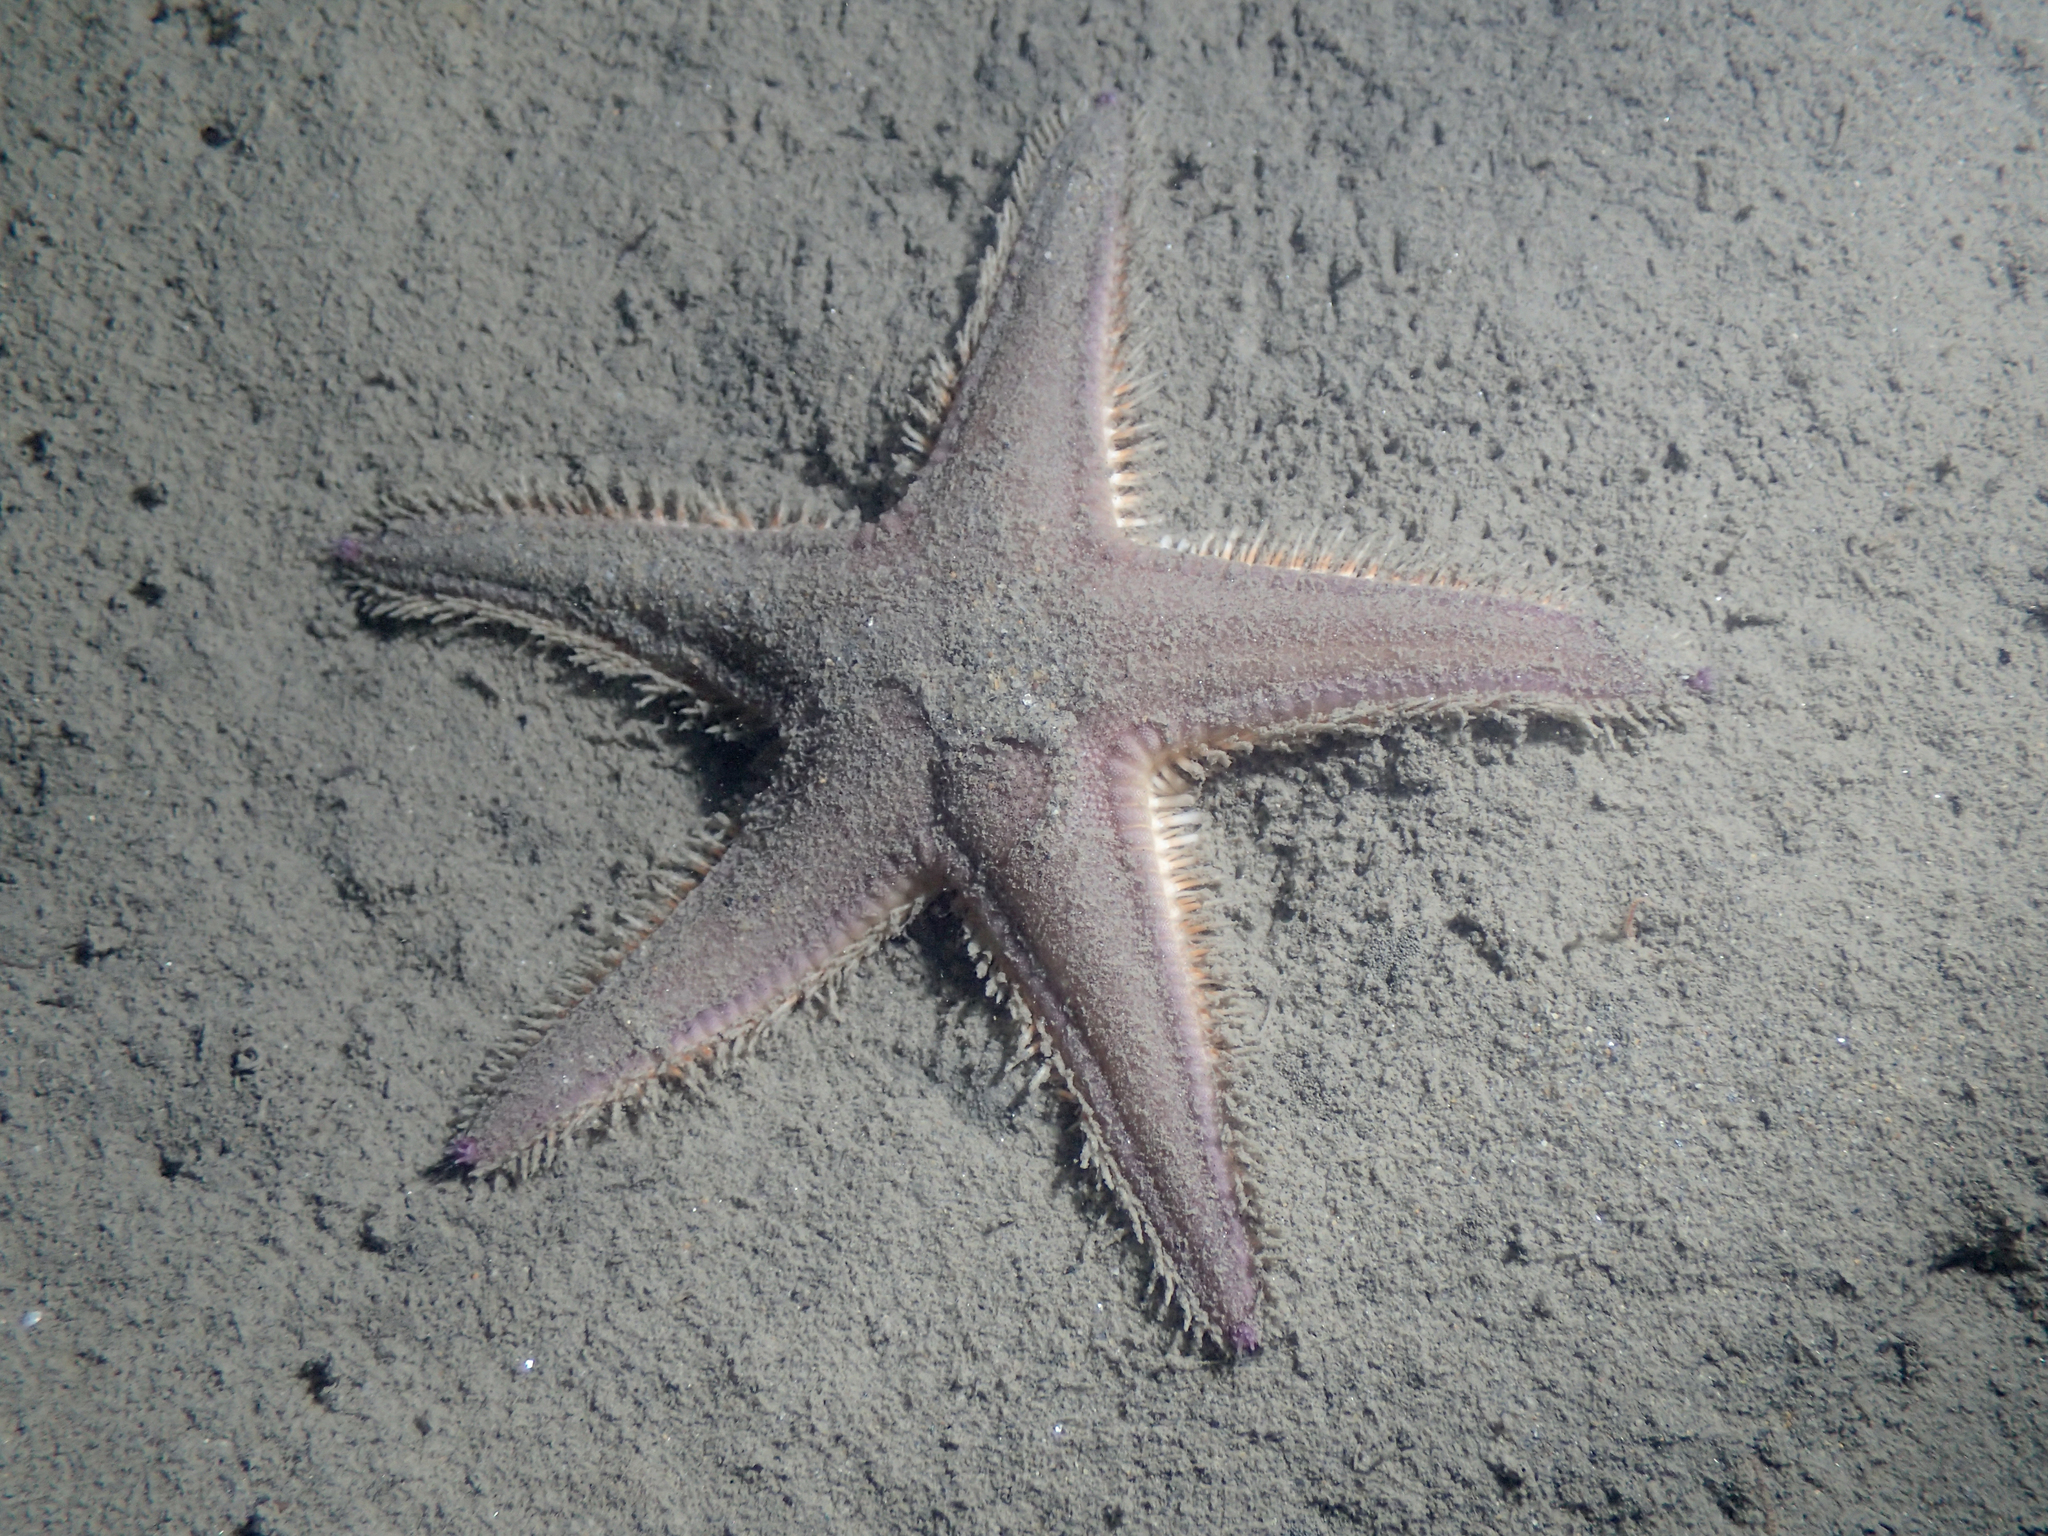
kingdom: Animalia
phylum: Echinodermata
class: Asteroidea
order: Paxillosida
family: Astropectinidae
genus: Astropecten
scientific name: Astropecten irregularis
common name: Sand star
